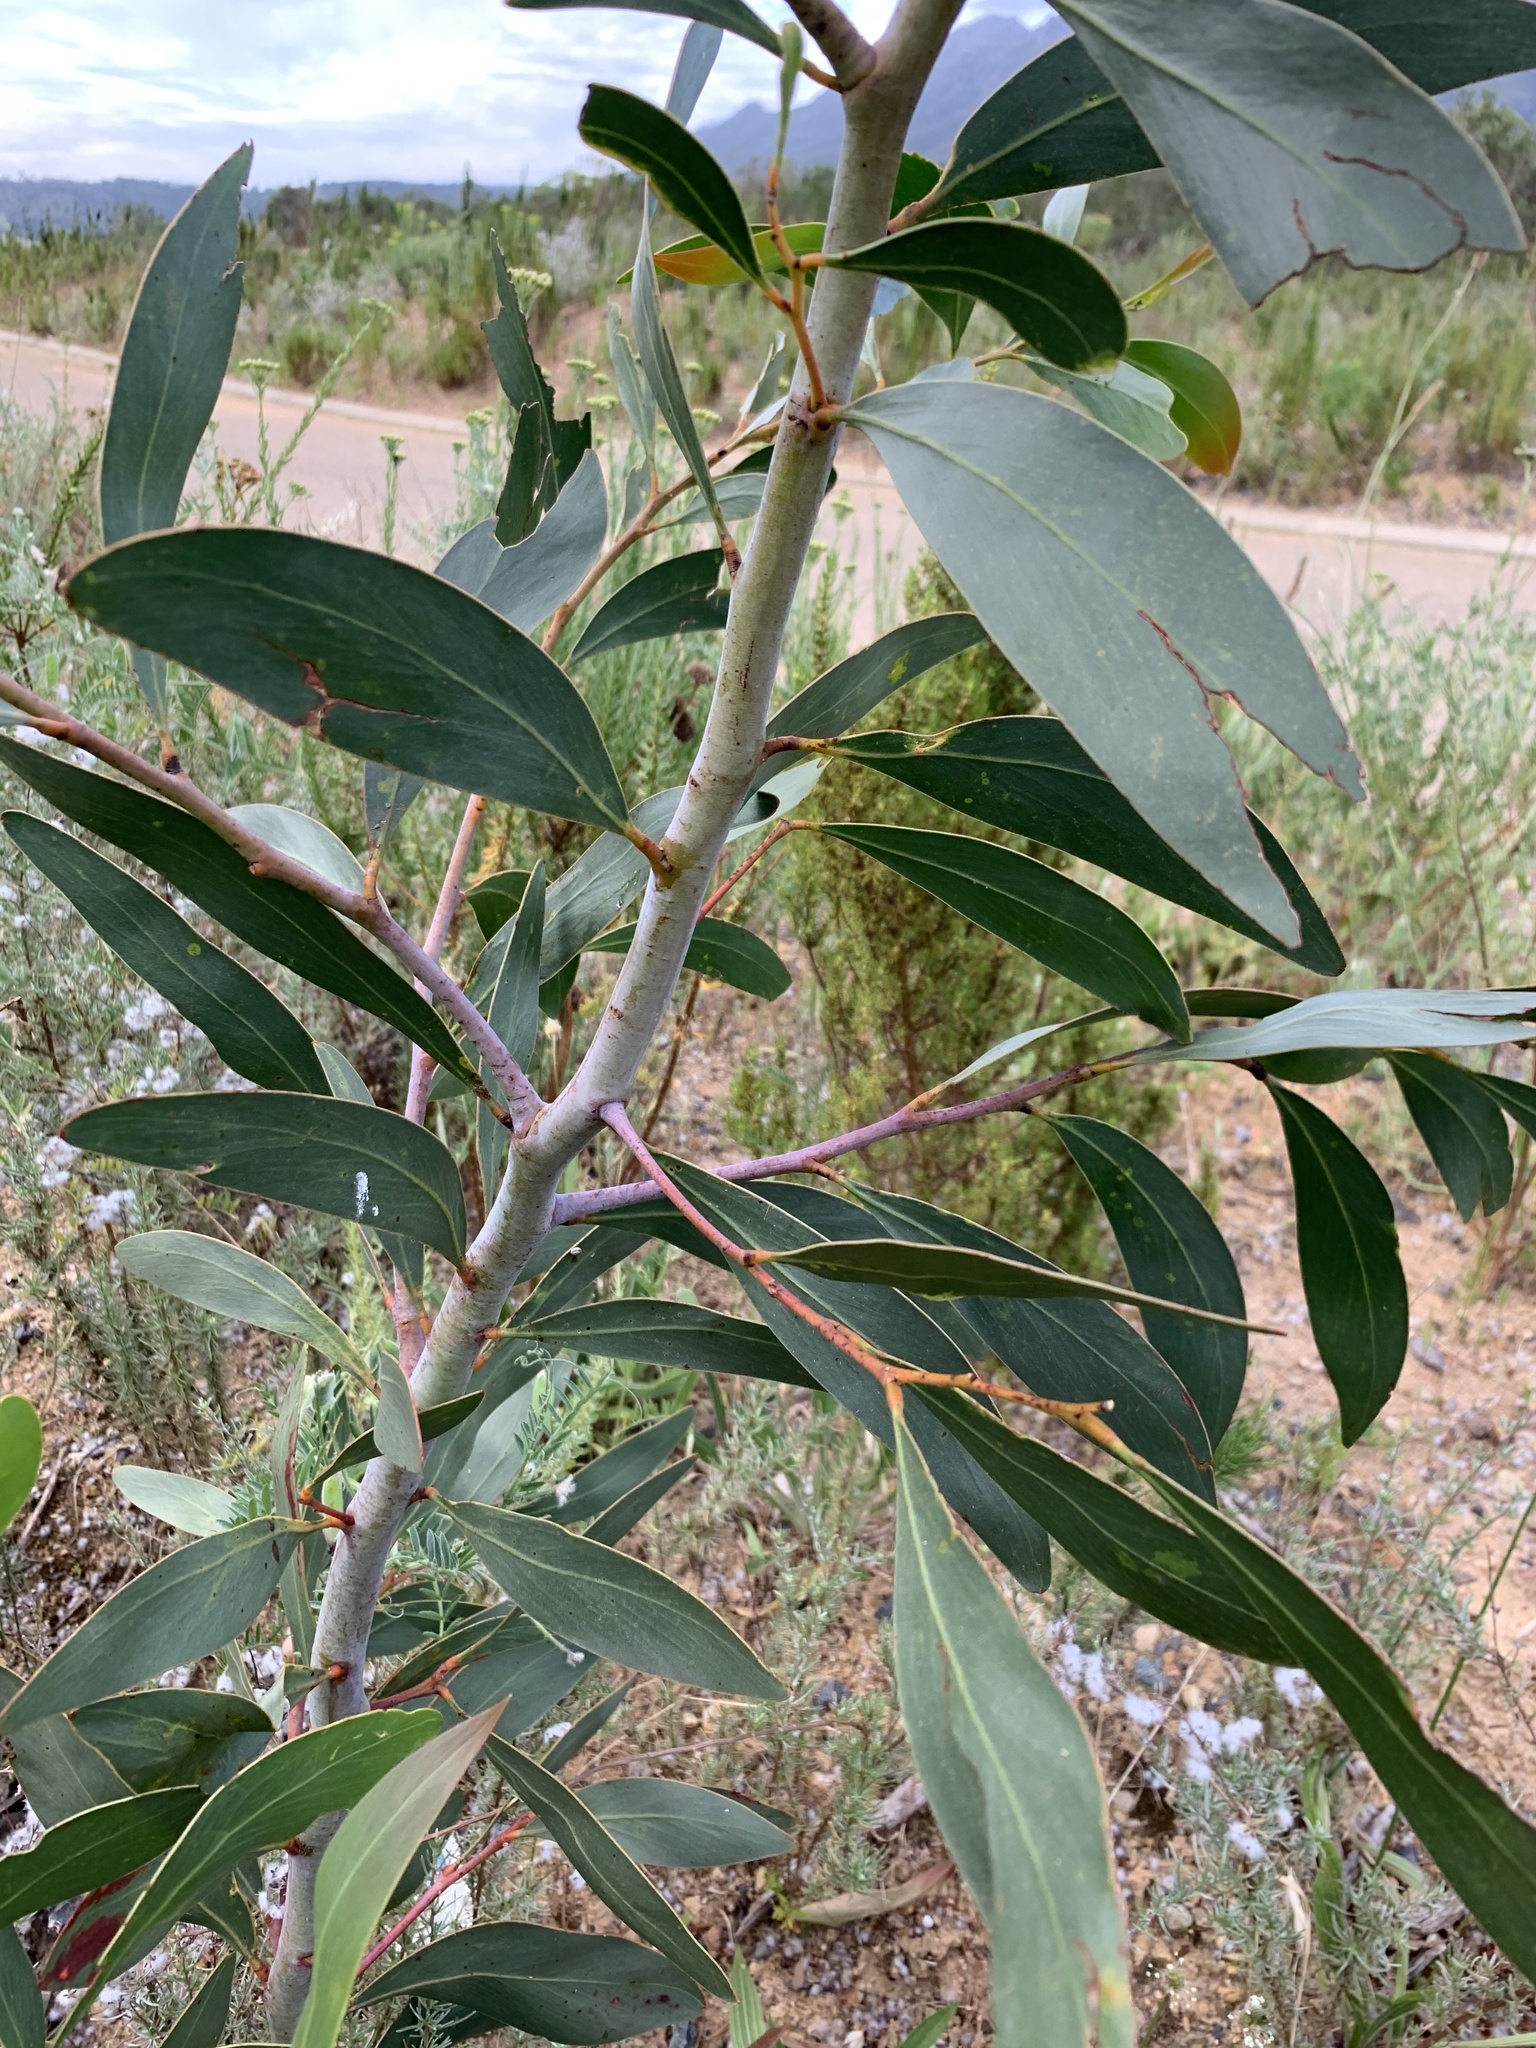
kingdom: Plantae
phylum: Tracheophyta
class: Magnoliopsida
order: Fabales
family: Fabaceae
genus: Acacia
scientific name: Acacia pycnantha
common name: Golden wattle
